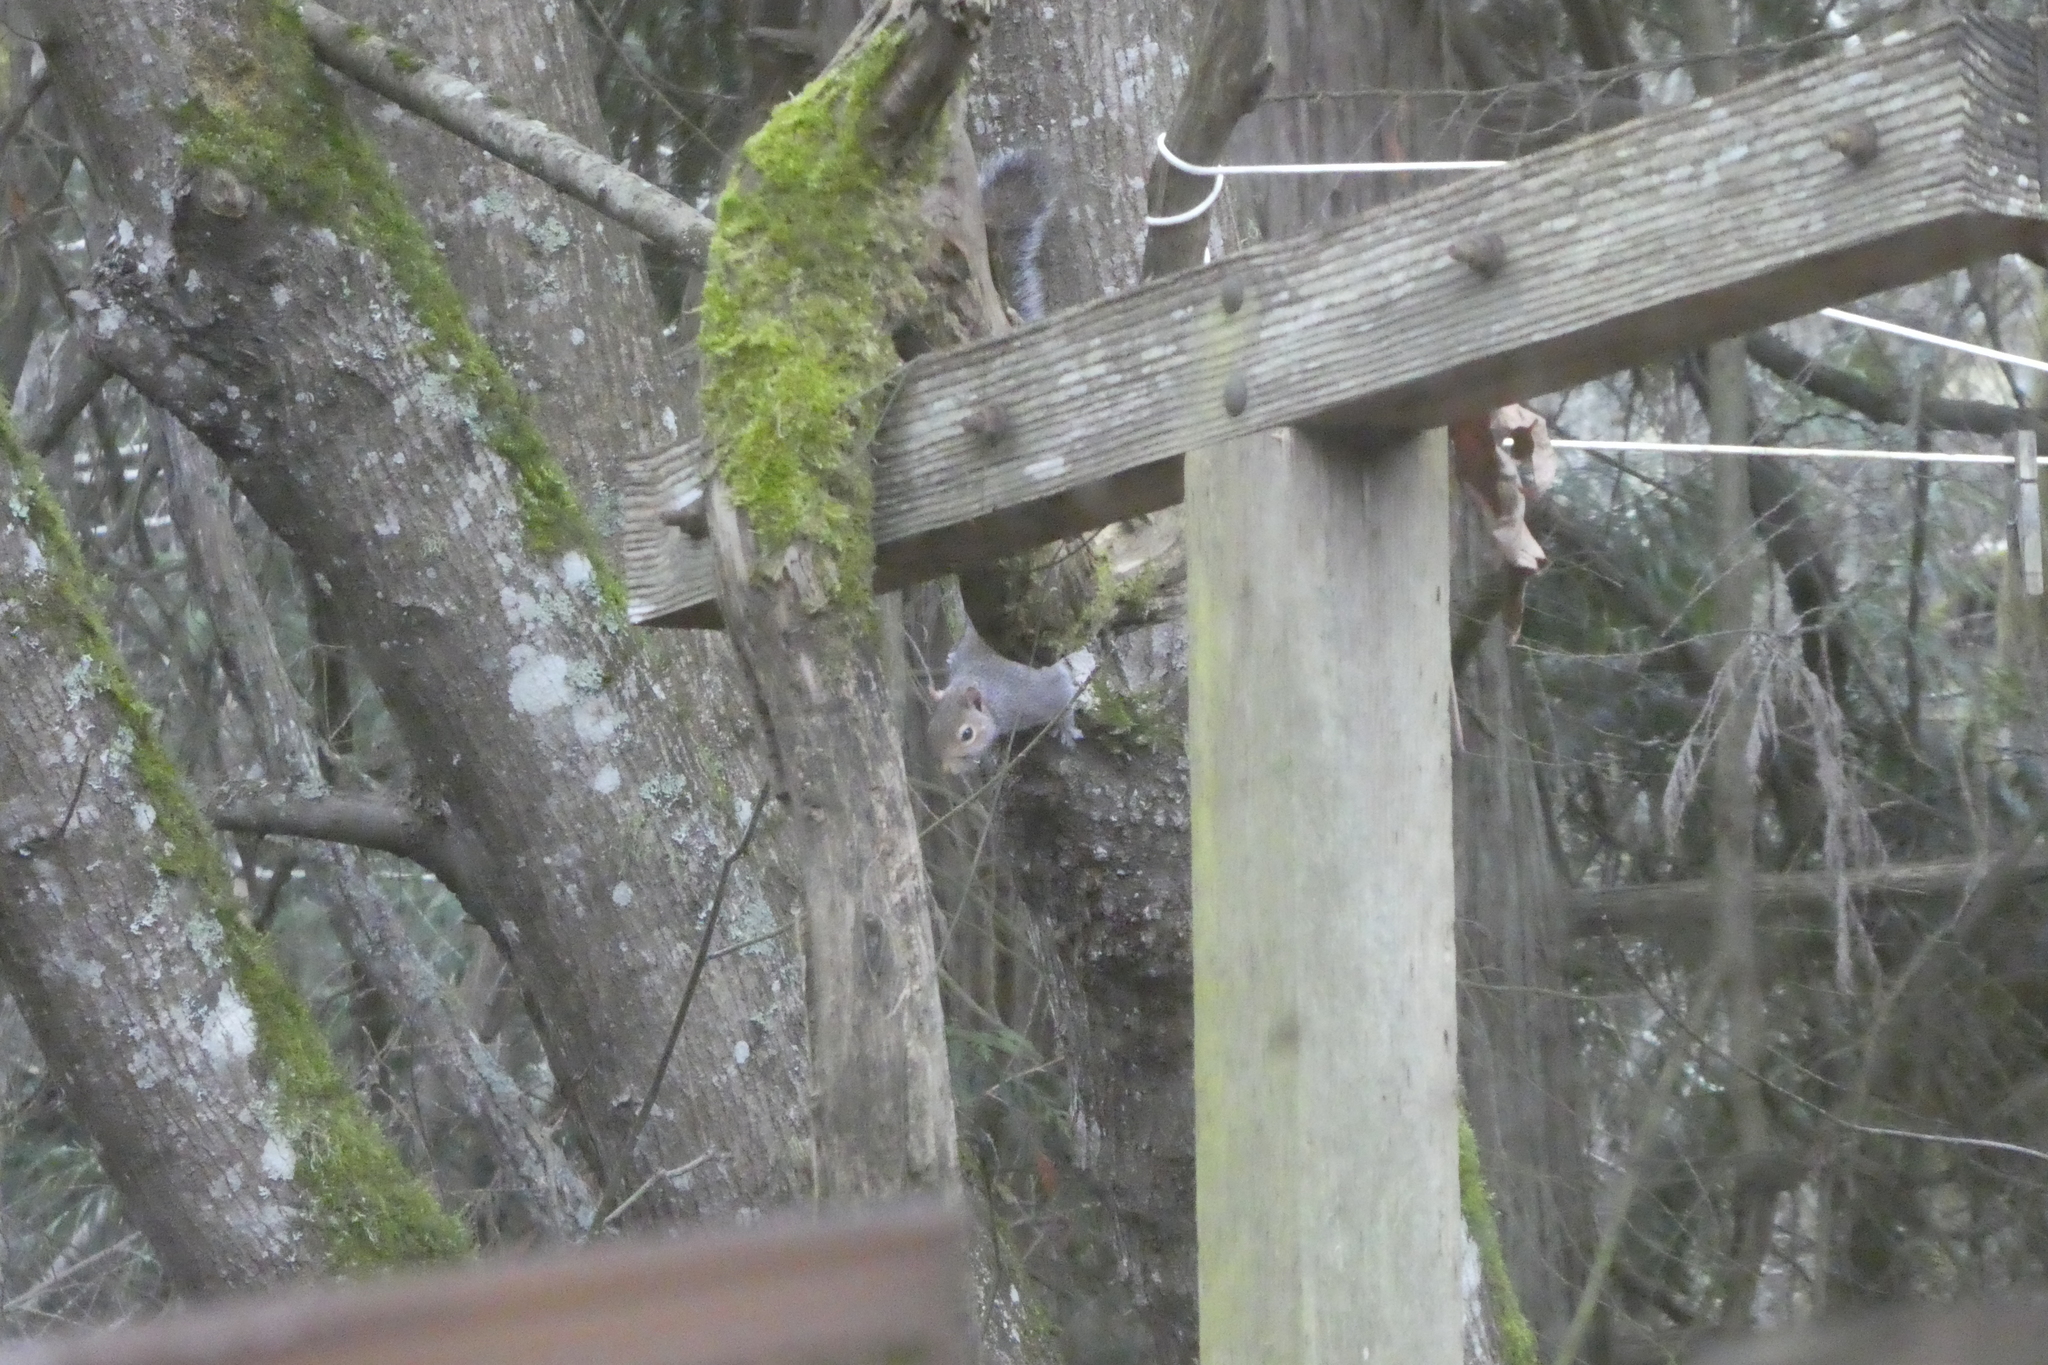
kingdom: Animalia
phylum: Chordata
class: Mammalia
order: Rodentia
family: Sciuridae
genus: Sciurus
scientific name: Sciurus carolinensis
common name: Eastern gray squirrel
